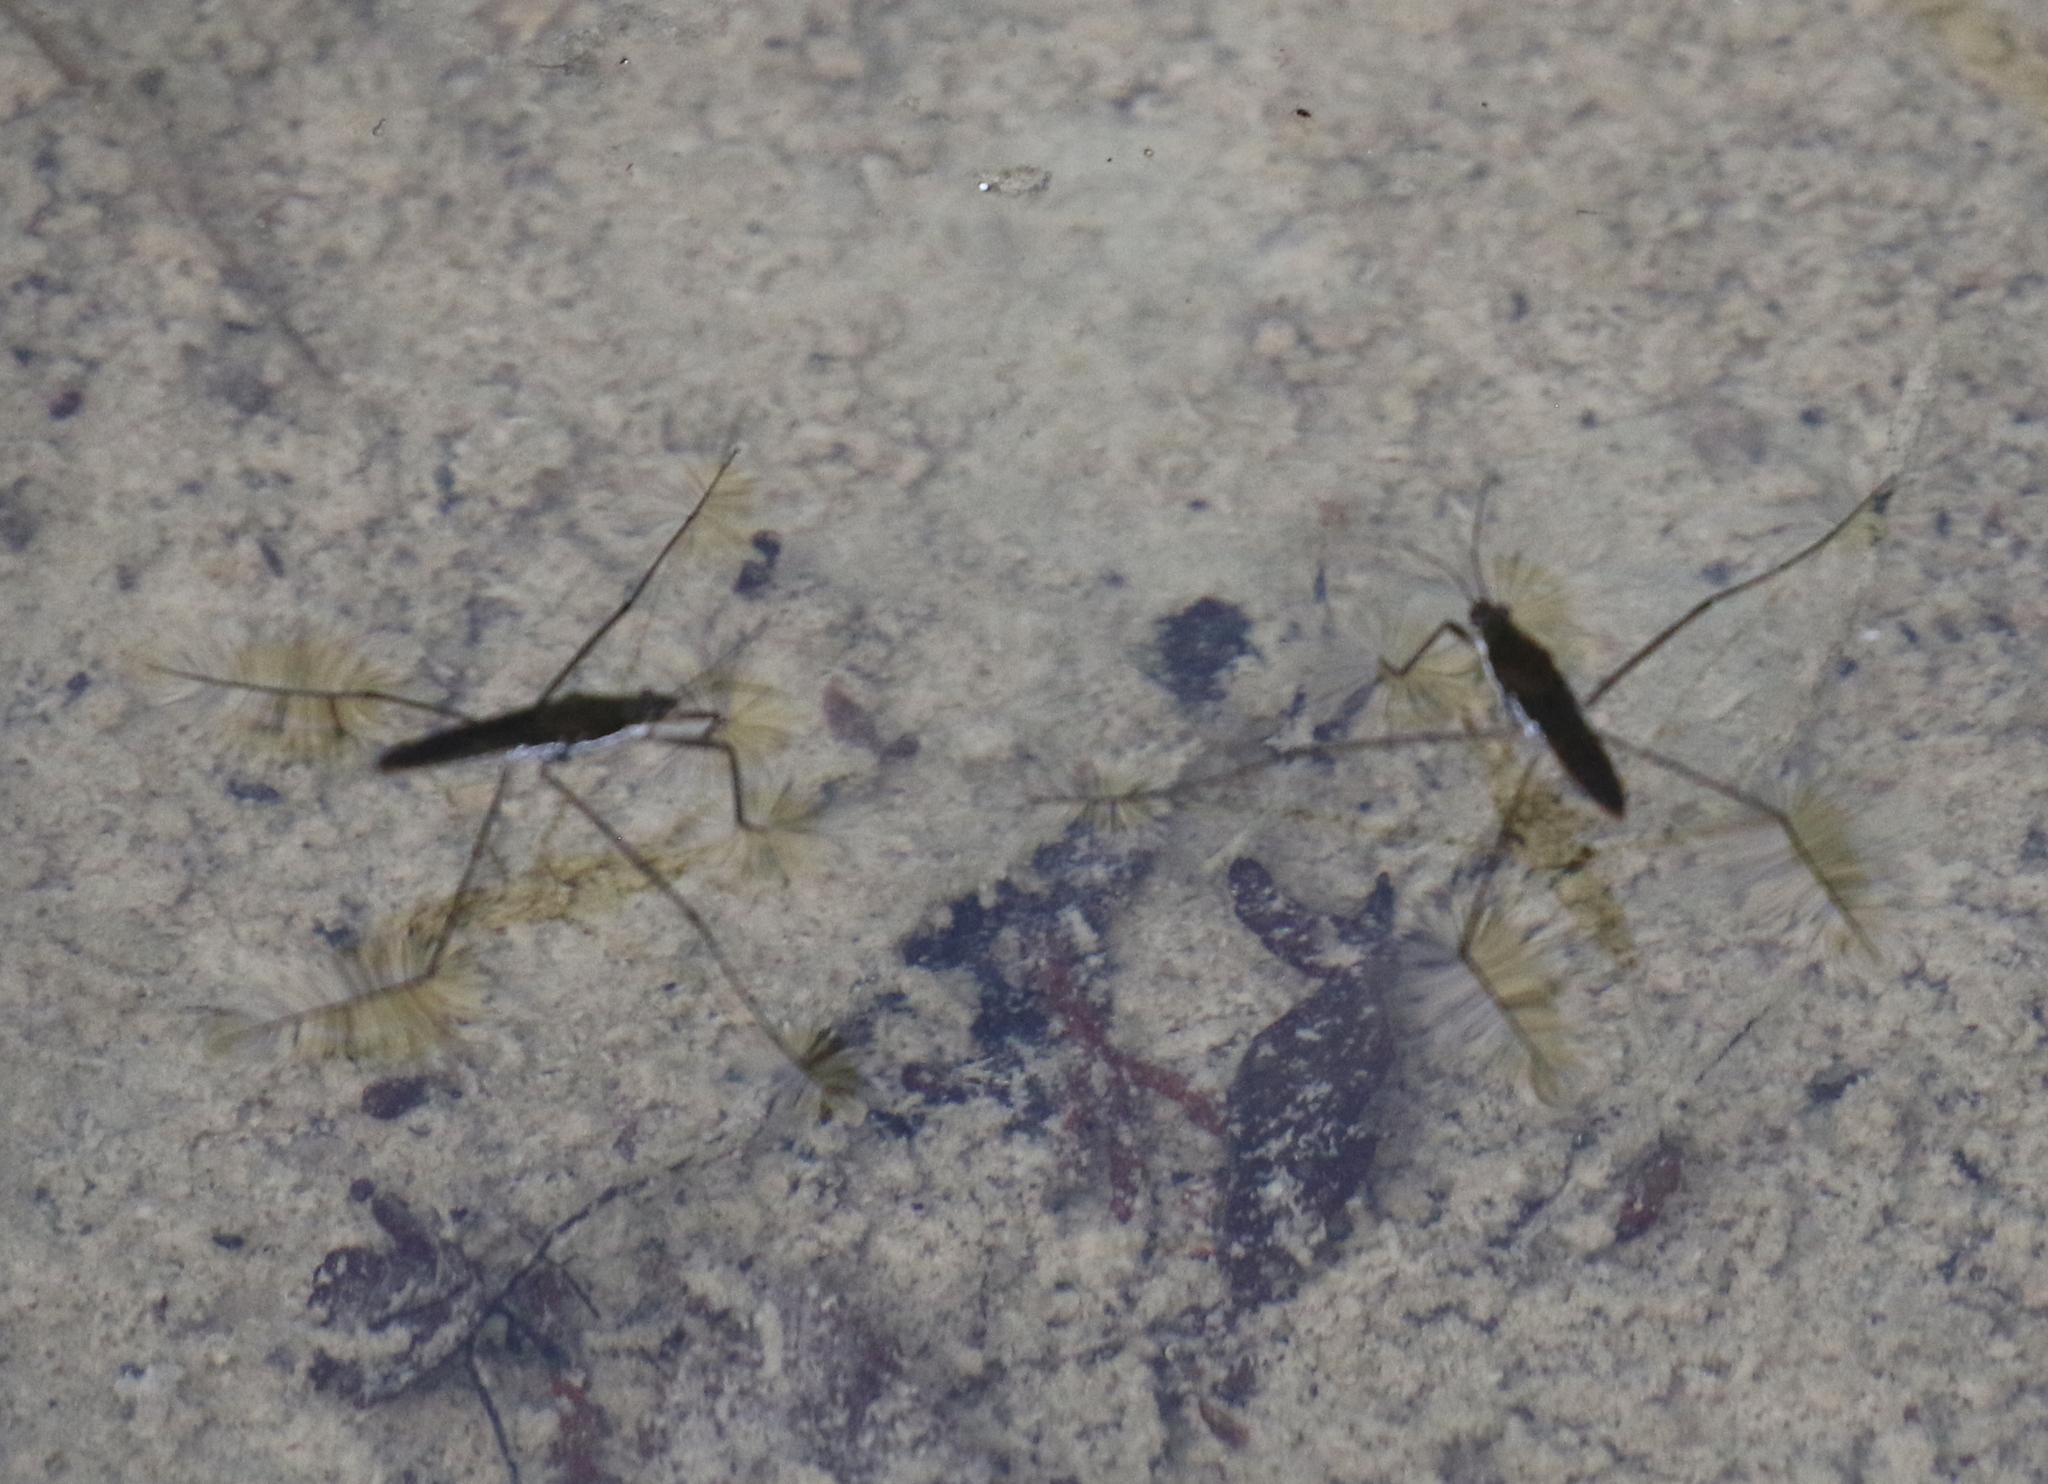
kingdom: Animalia
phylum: Arthropoda
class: Insecta
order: Hemiptera
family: Gerridae
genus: Aquarius
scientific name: Aquarius remigis
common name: Common water strider
